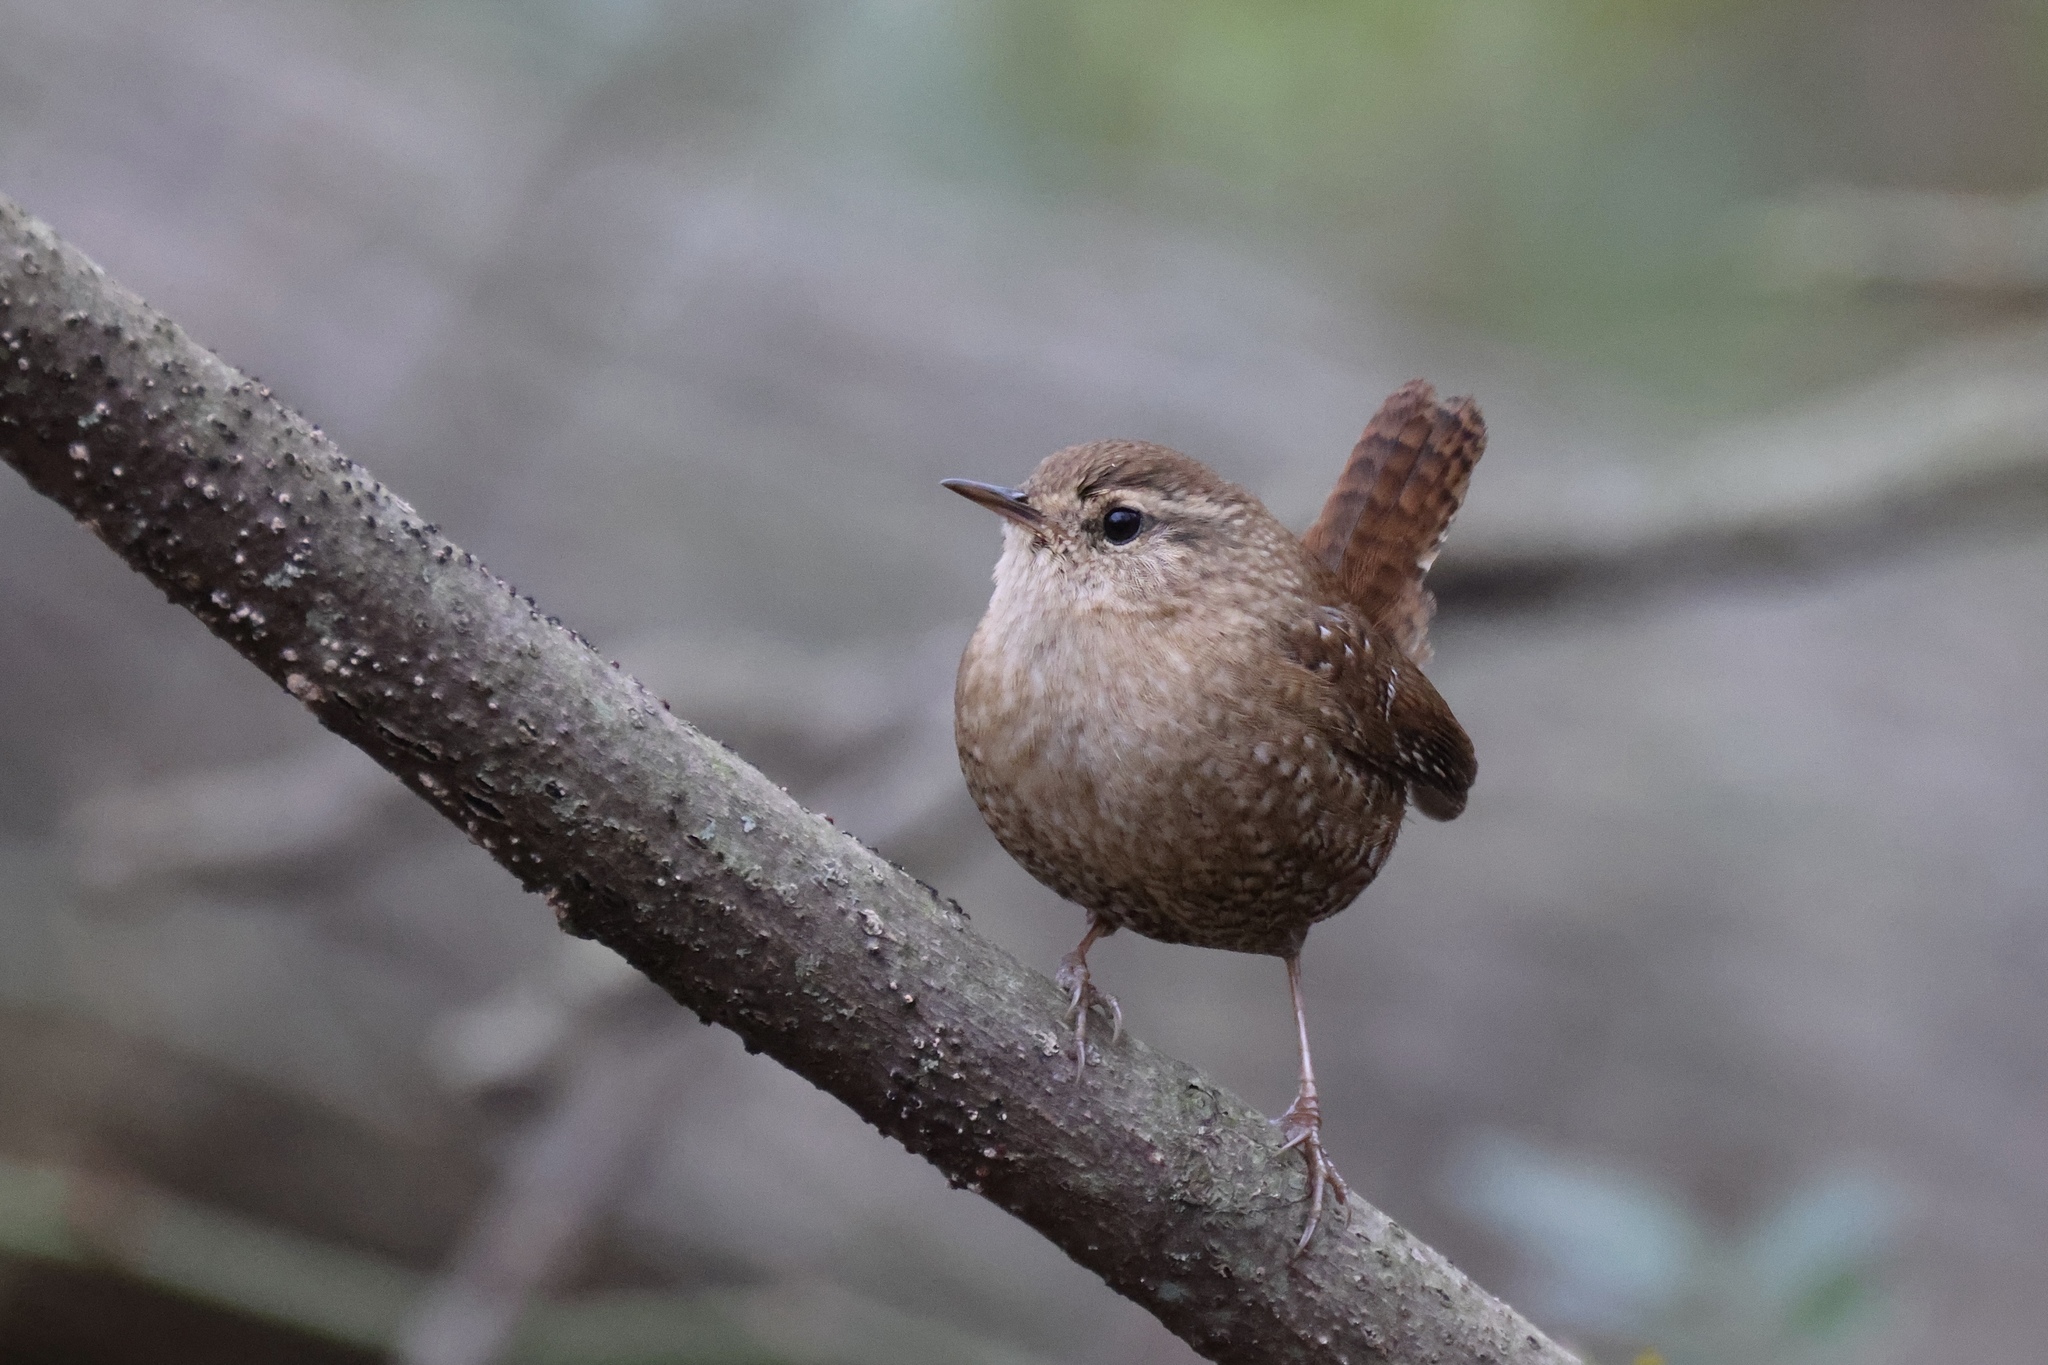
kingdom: Animalia
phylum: Chordata
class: Aves
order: Passeriformes
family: Troglodytidae
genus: Troglodytes
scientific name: Troglodytes hiemalis
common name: Winter wren
